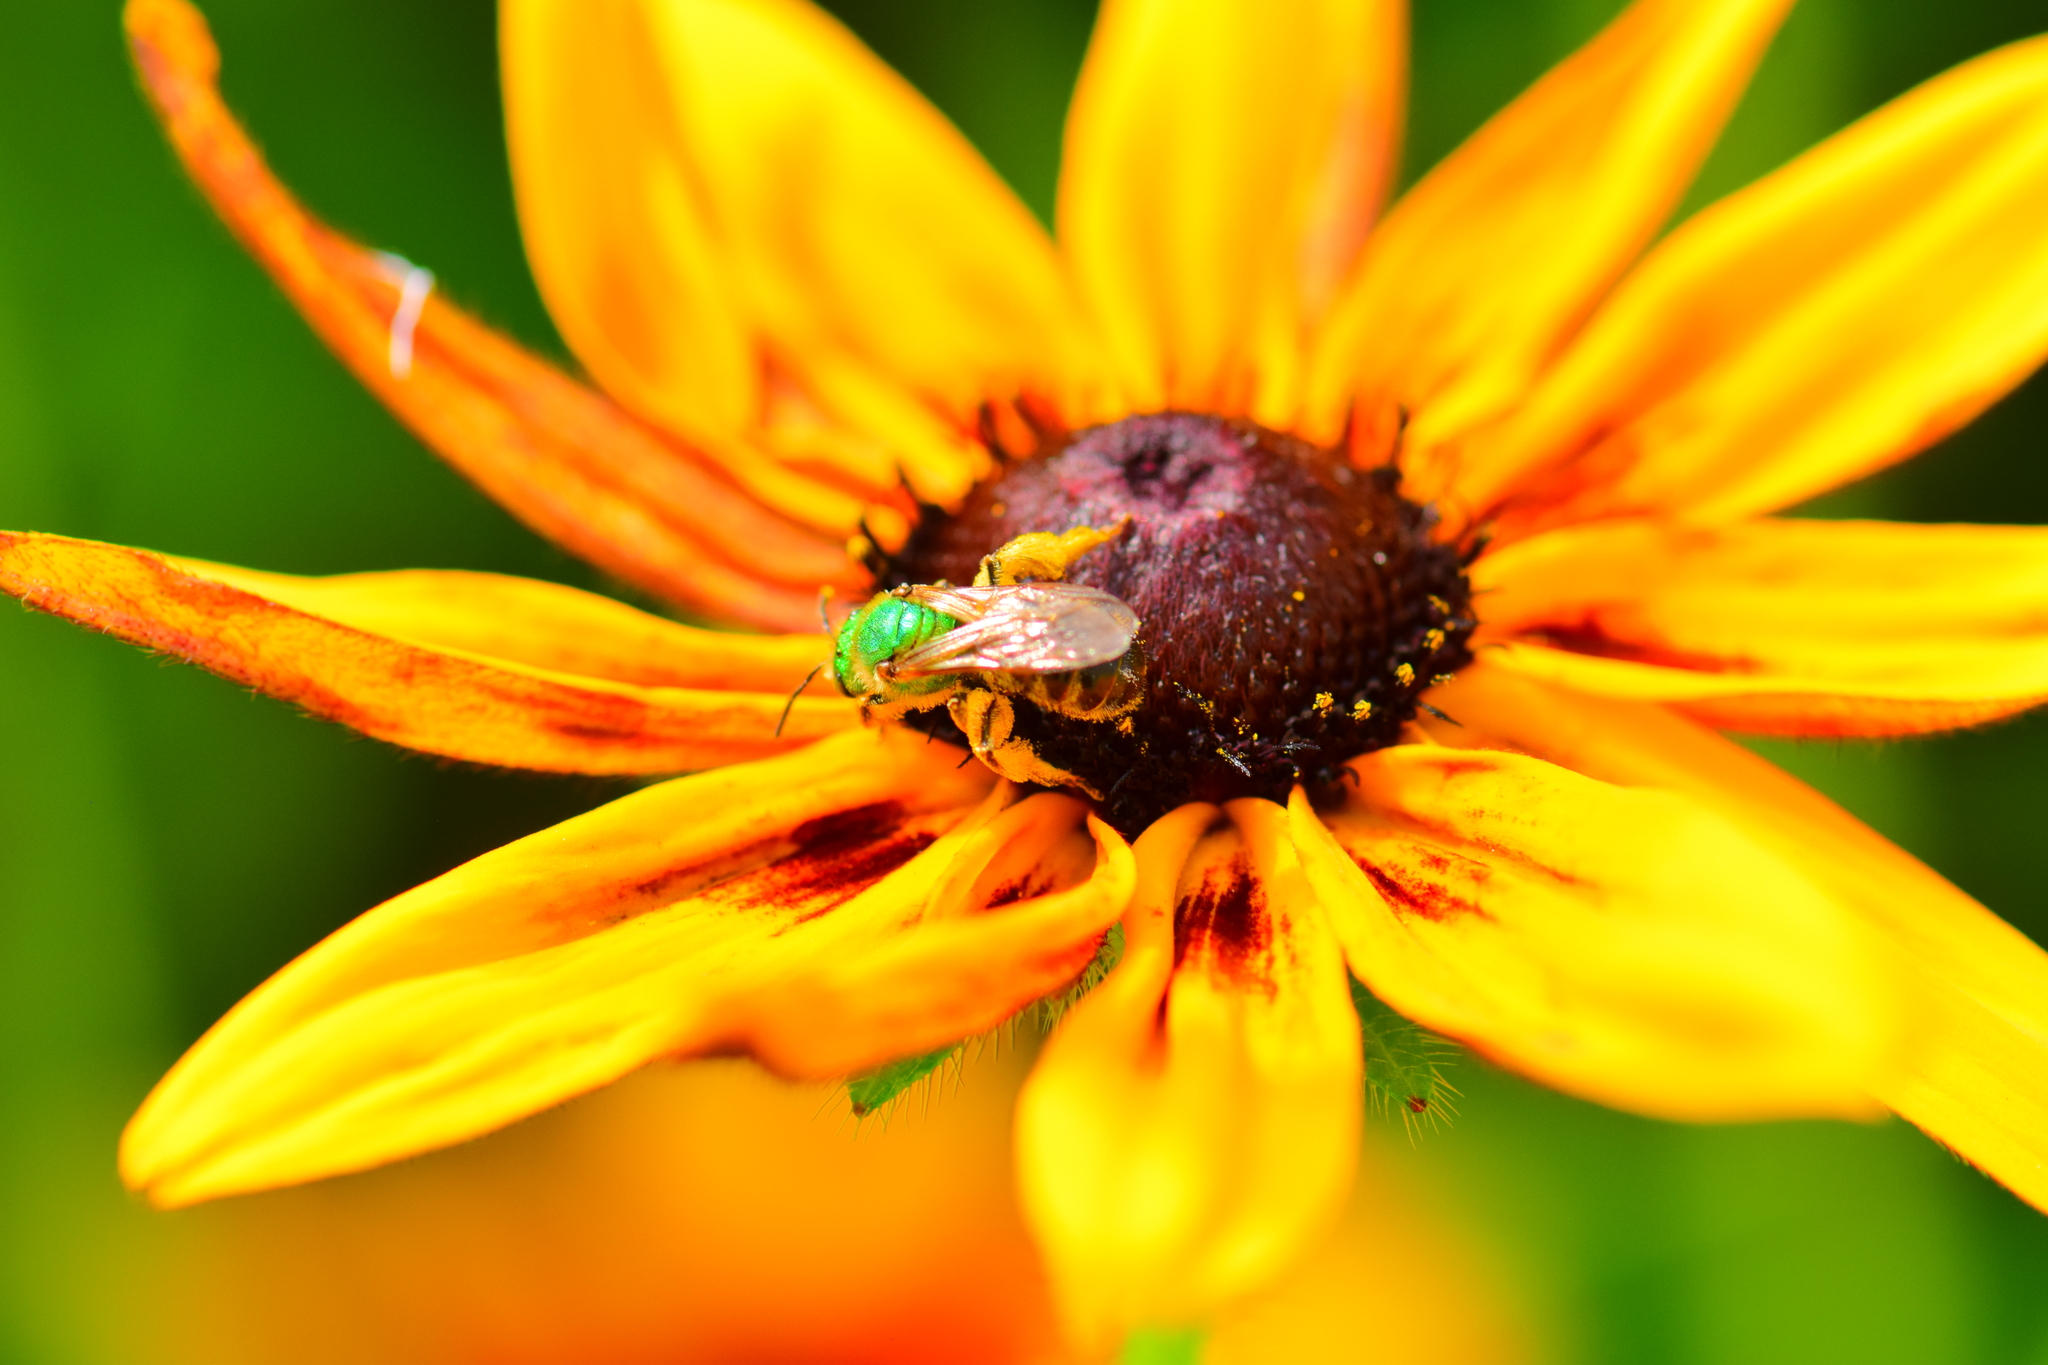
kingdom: Animalia
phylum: Arthropoda
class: Insecta
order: Hymenoptera
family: Halictidae
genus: Agapostemon
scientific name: Agapostemon virescens
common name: Bicolored striped sweat bee
